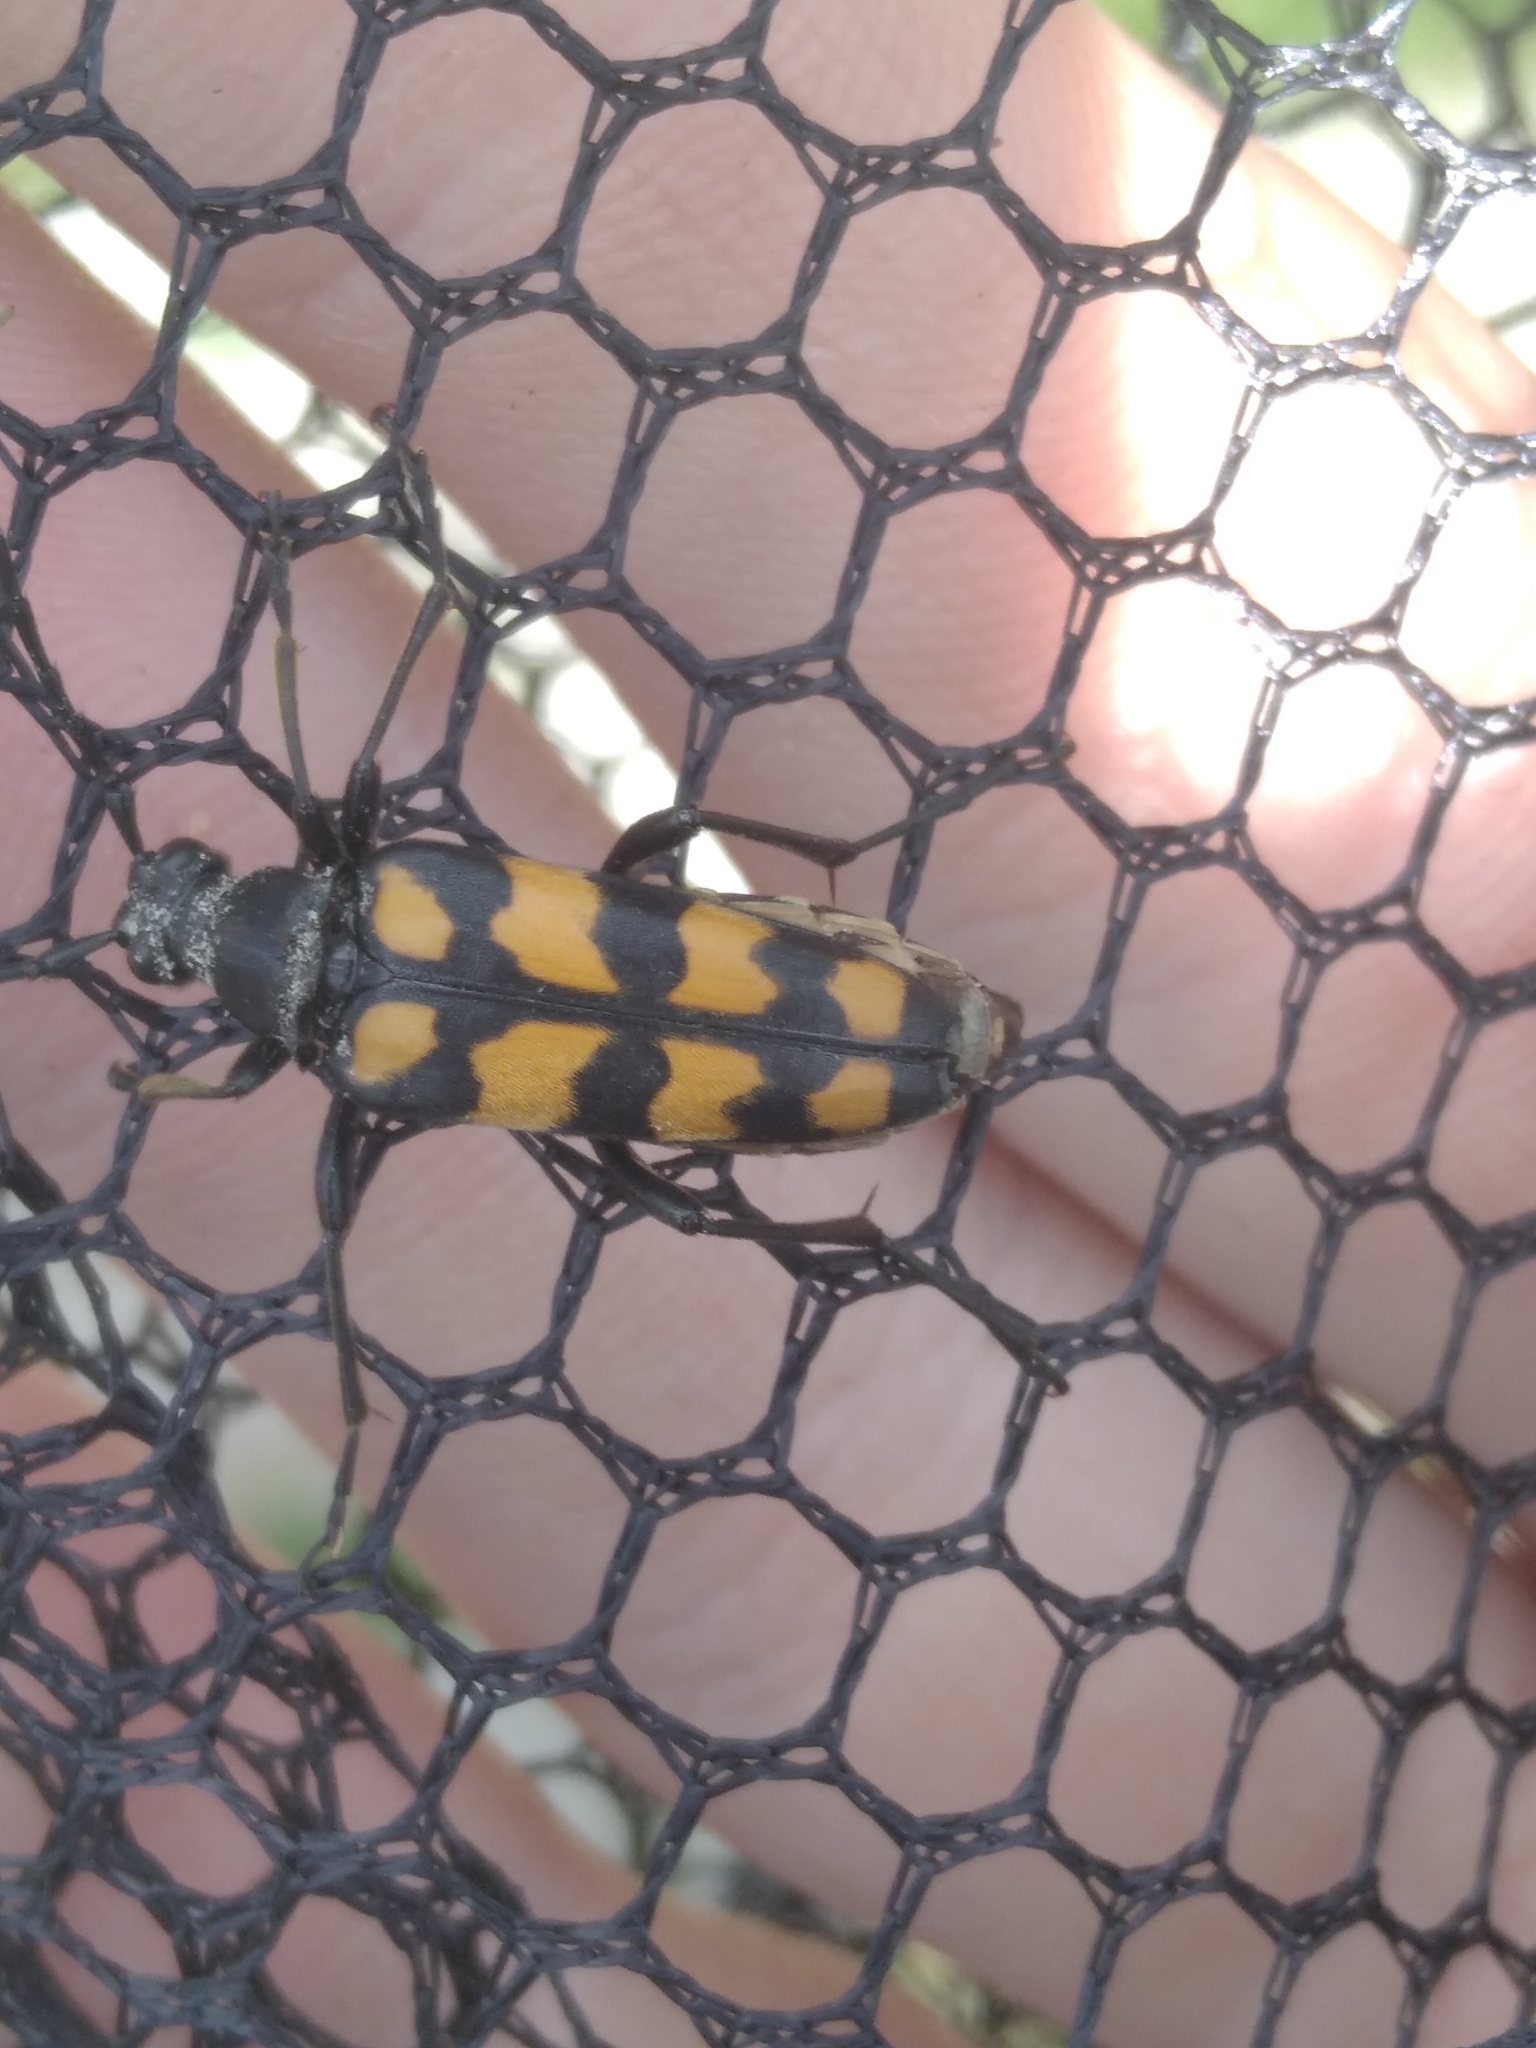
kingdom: Animalia
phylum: Arthropoda
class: Insecta
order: Coleoptera
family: Cerambycidae
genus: Leptura
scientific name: Leptura quadrifasciata
